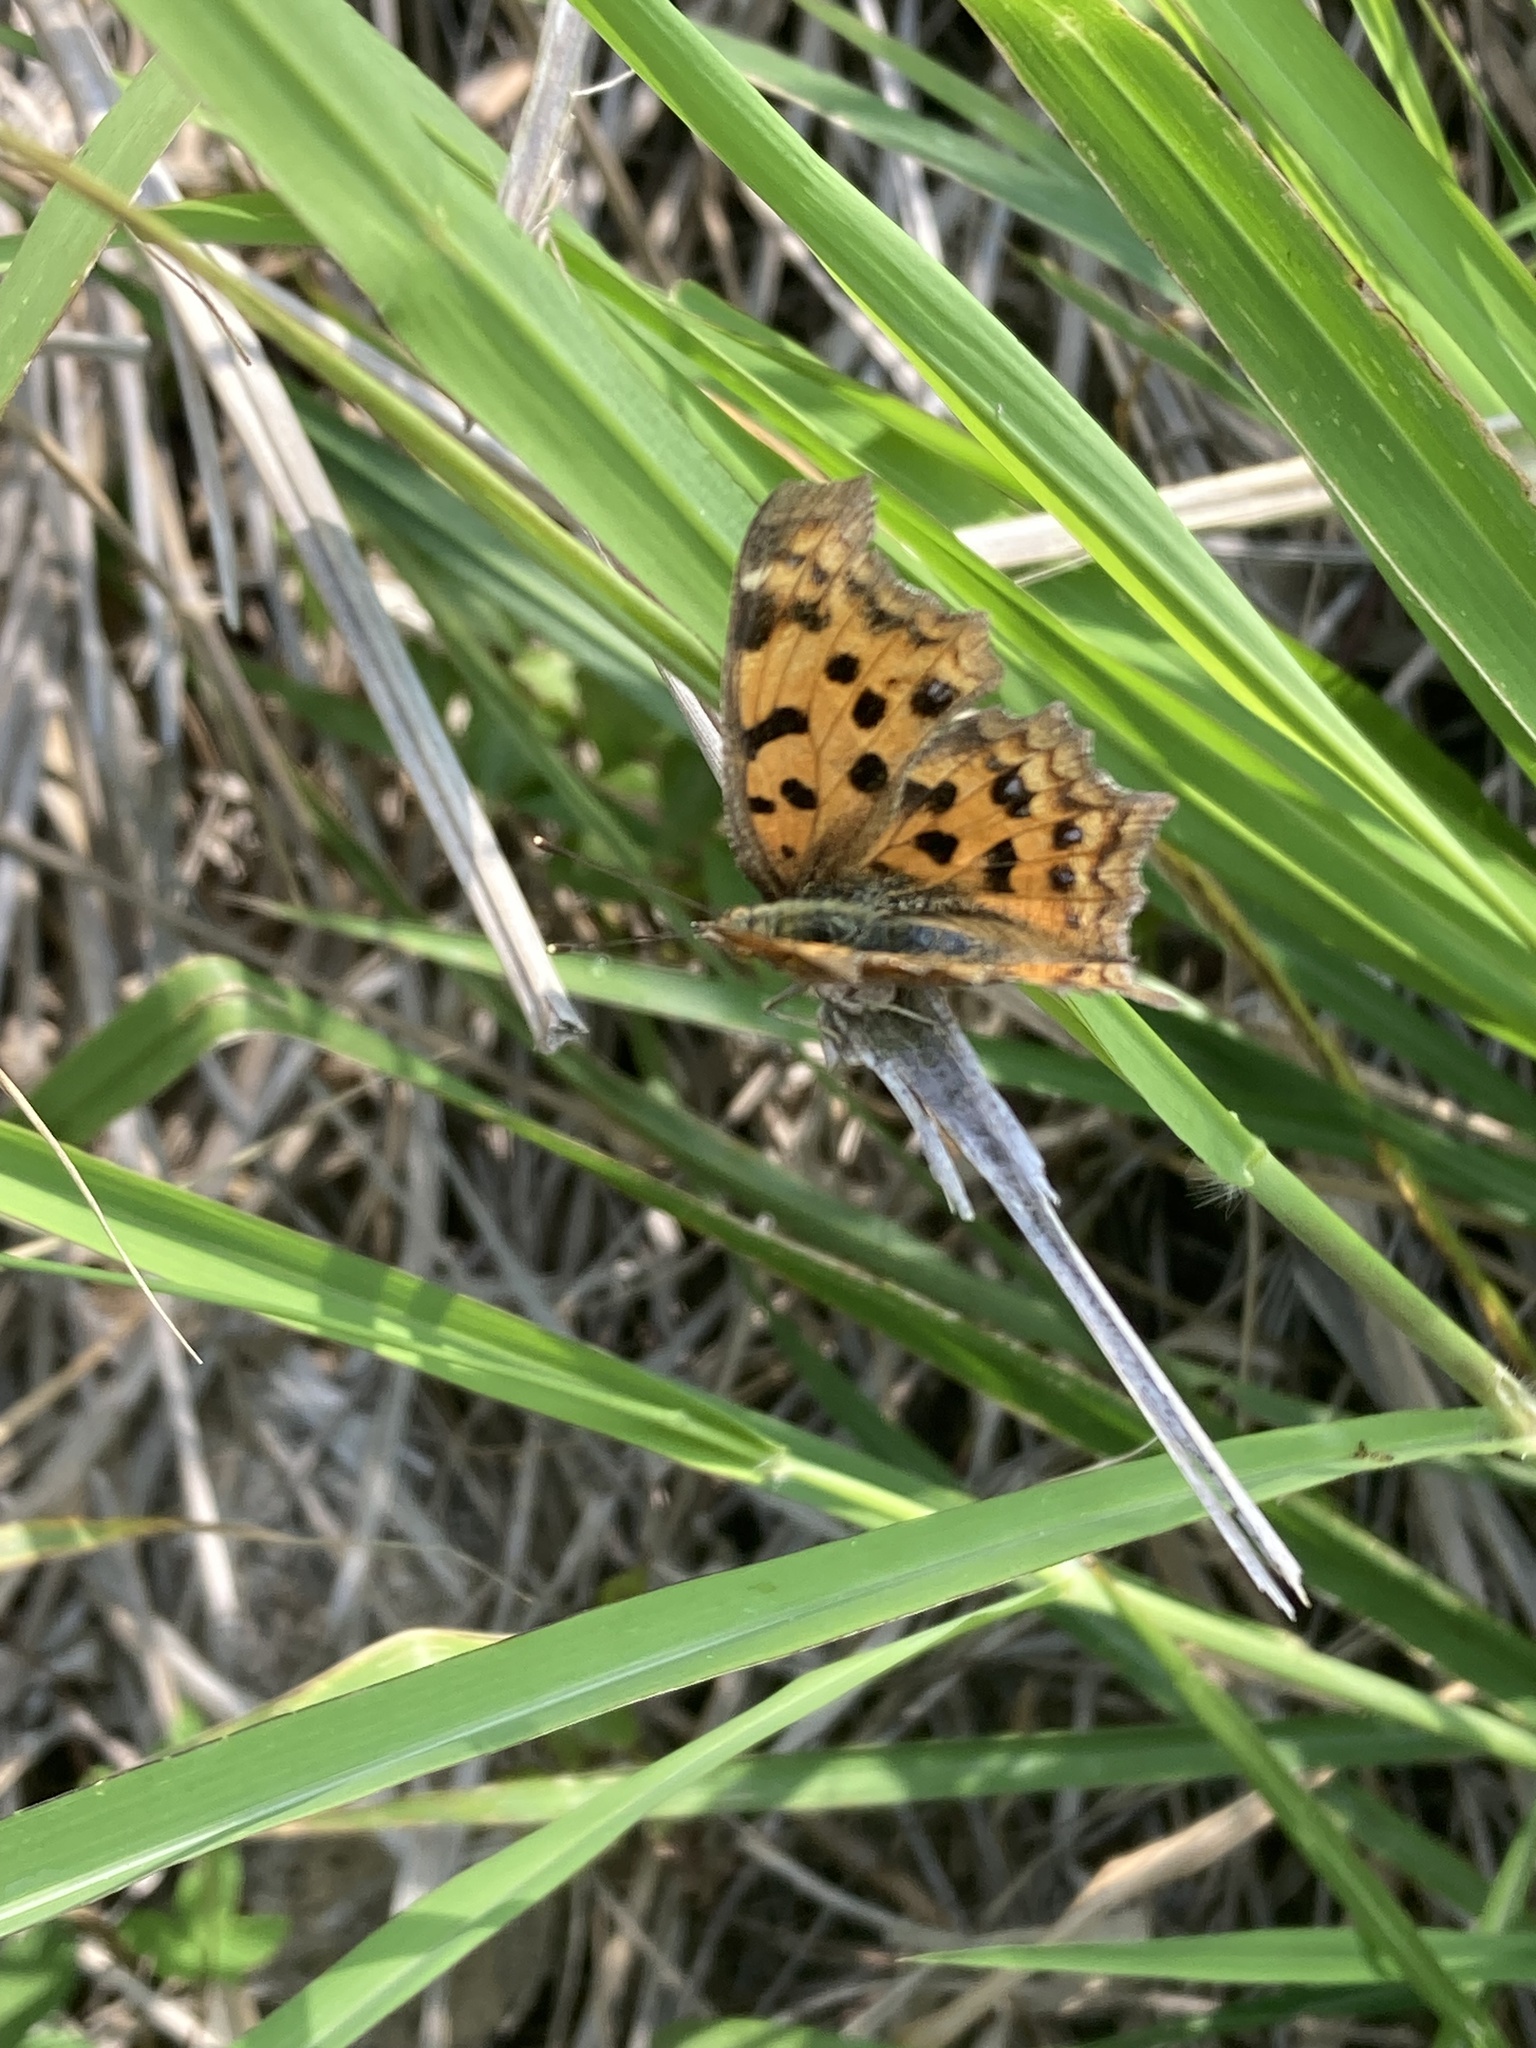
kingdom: Animalia
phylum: Arthropoda
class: Insecta
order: Lepidoptera
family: Nymphalidae
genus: Polygonia
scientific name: Polygonia c-aureum
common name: Asian comma
